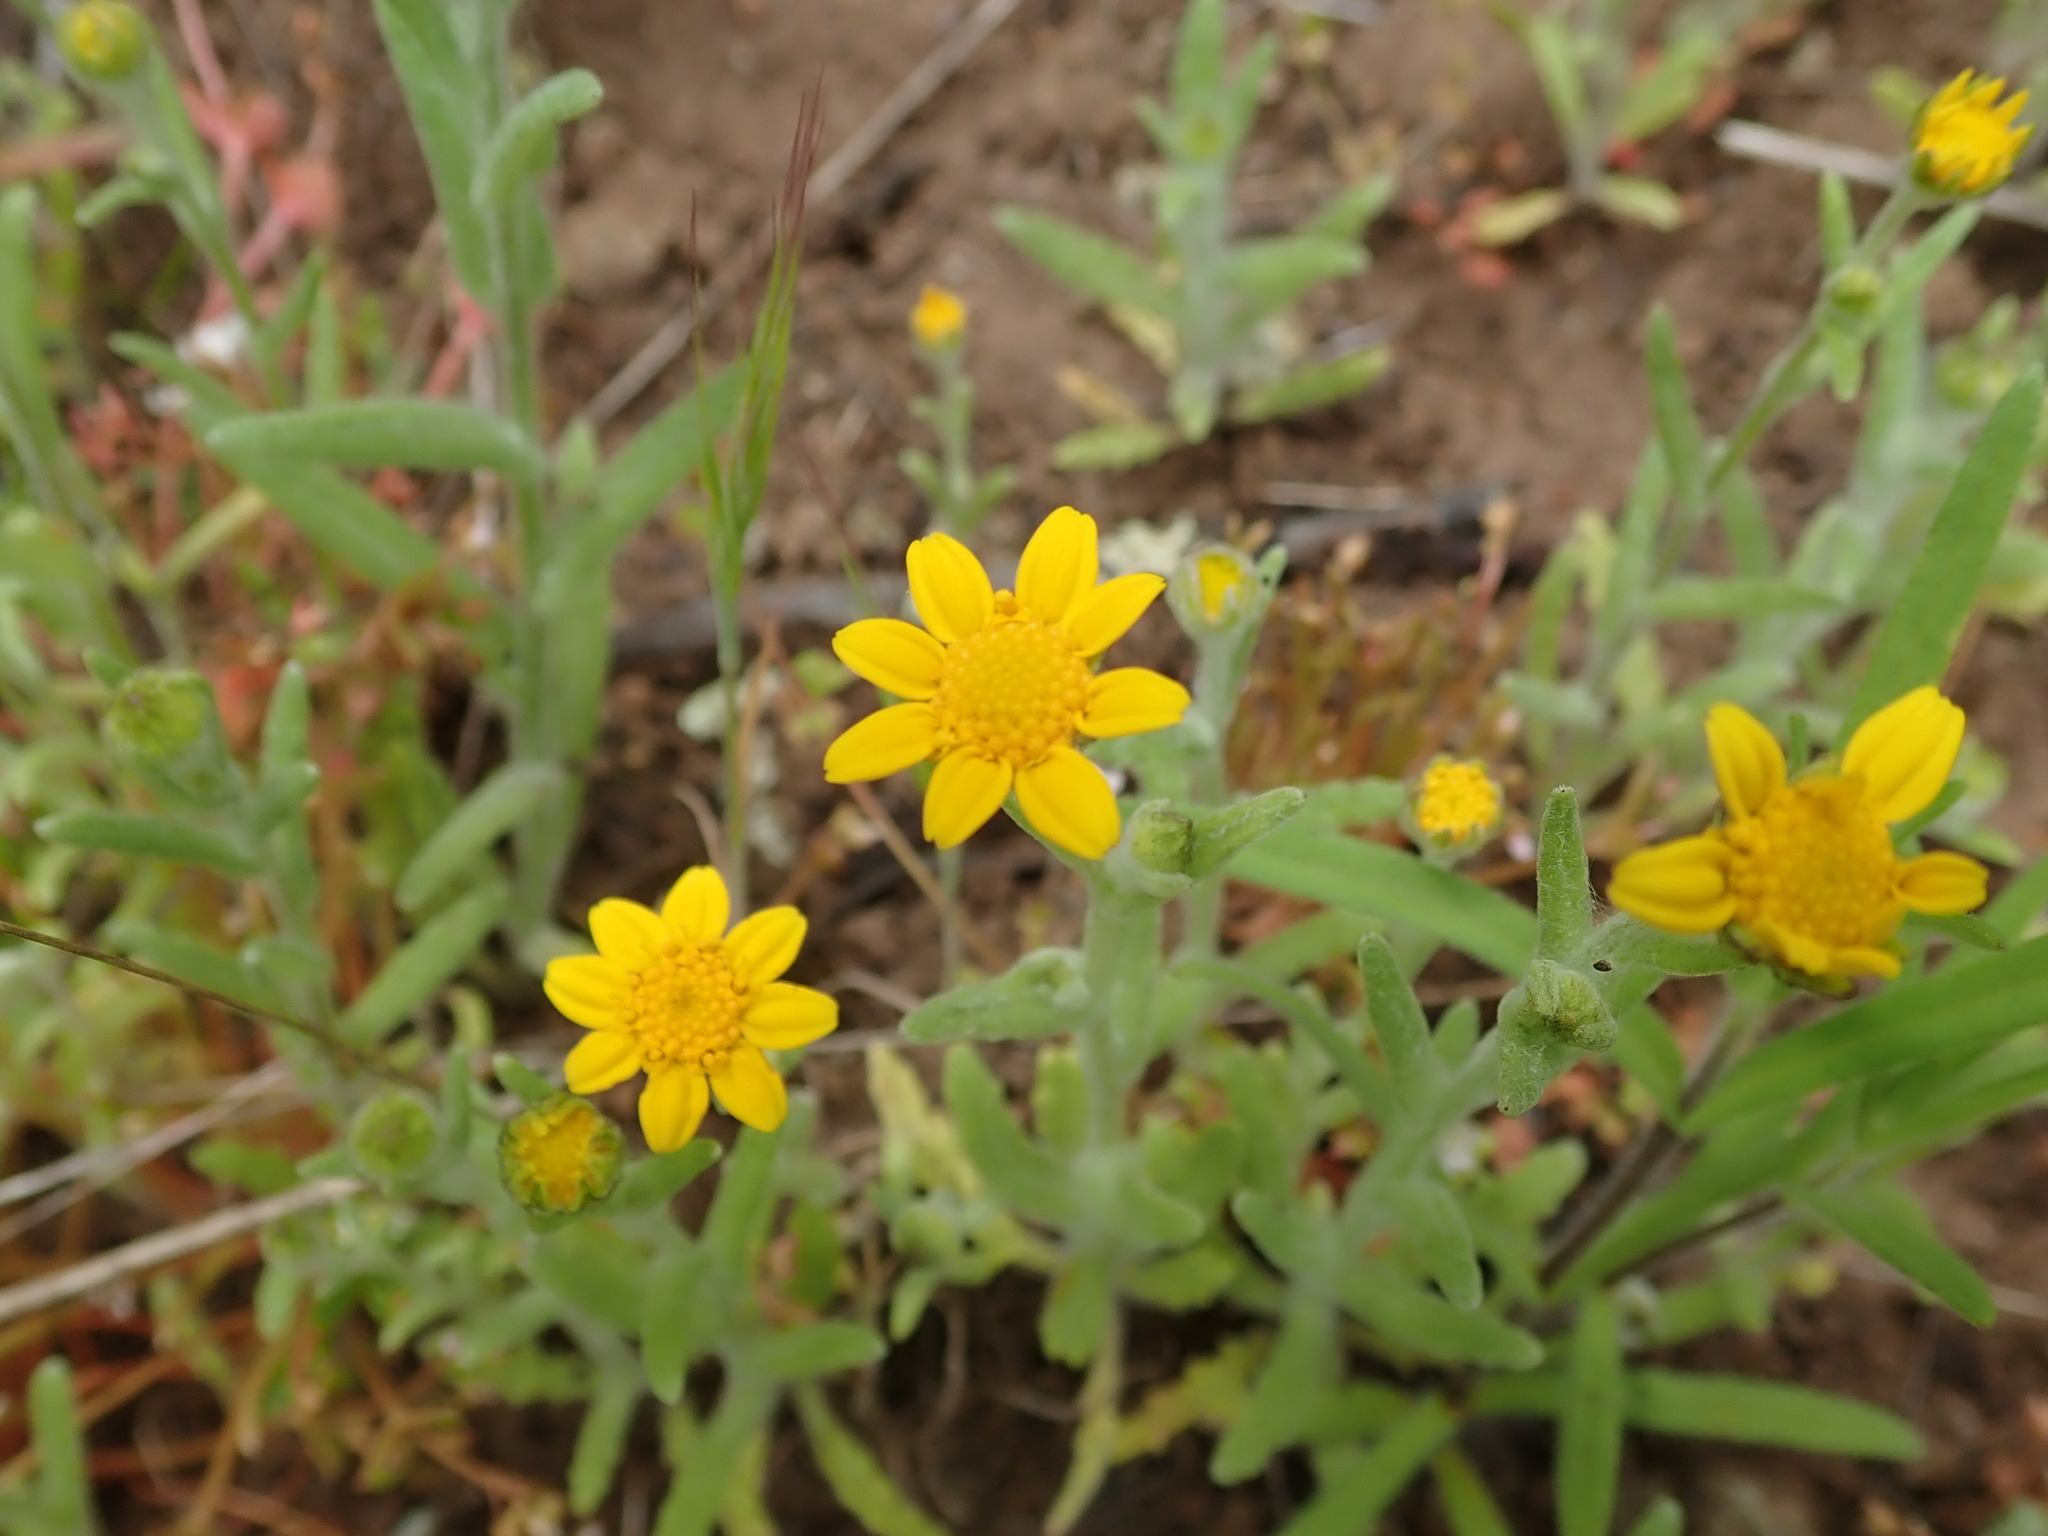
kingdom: Plantae
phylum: Tracheophyta
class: Magnoliopsida
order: Asterales
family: Asteraceae
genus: Monolopia
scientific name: Monolopia gracilens
